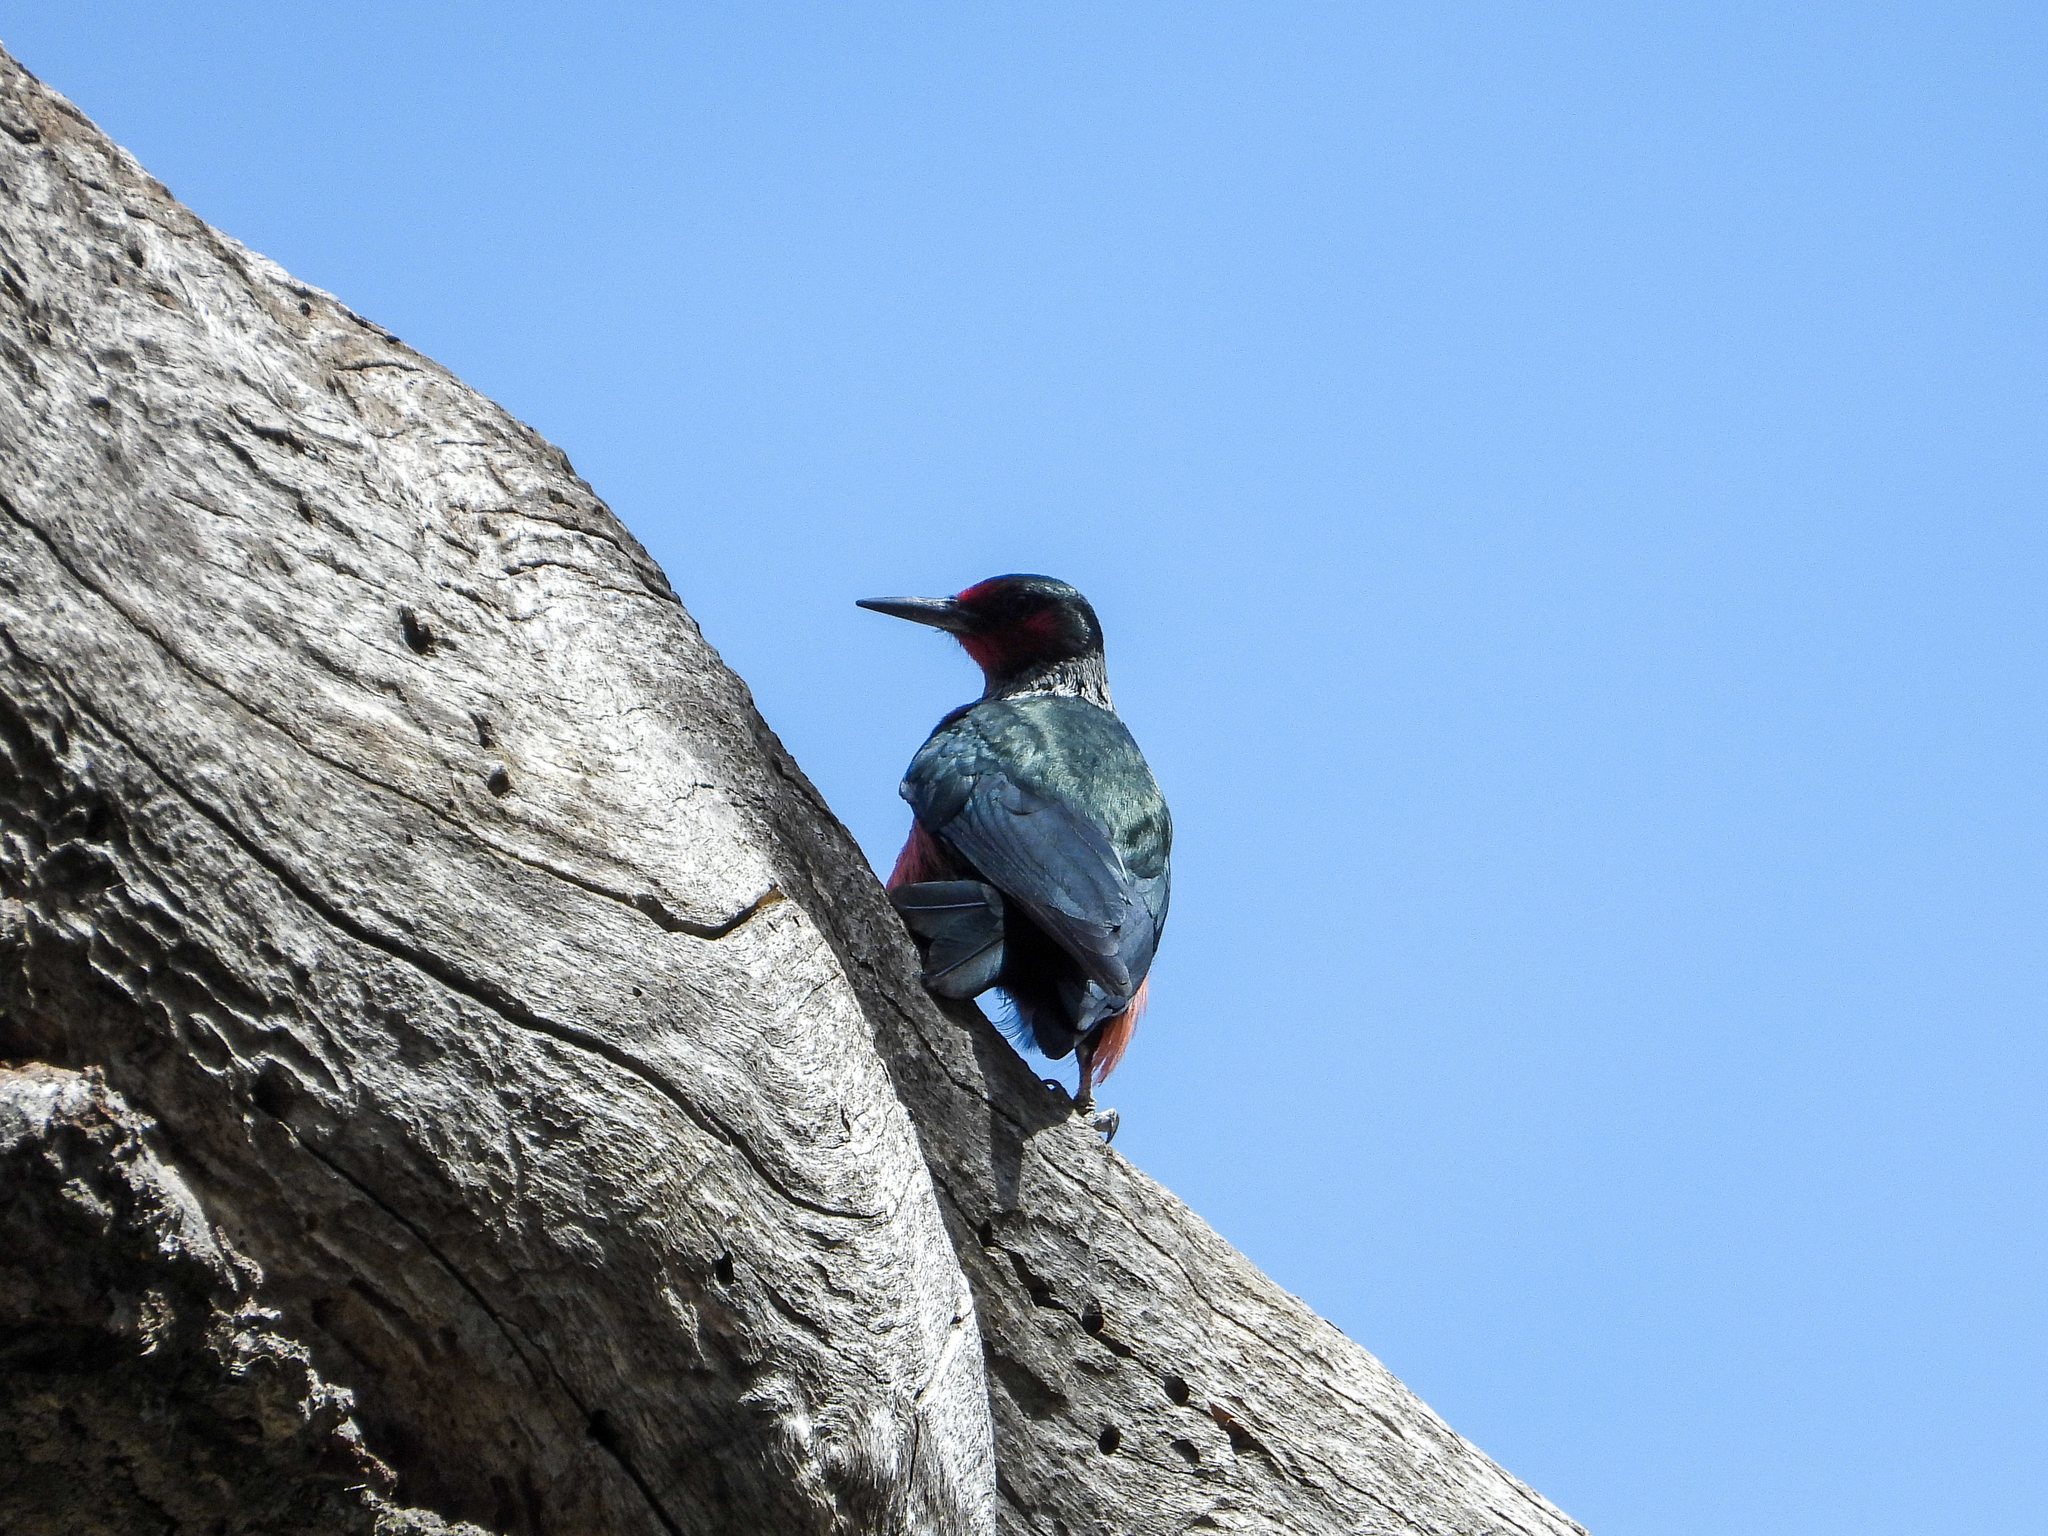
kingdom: Animalia
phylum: Chordata
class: Aves
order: Piciformes
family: Picidae
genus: Melanerpes
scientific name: Melanerpes lewis
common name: Lewis's woodpecker
